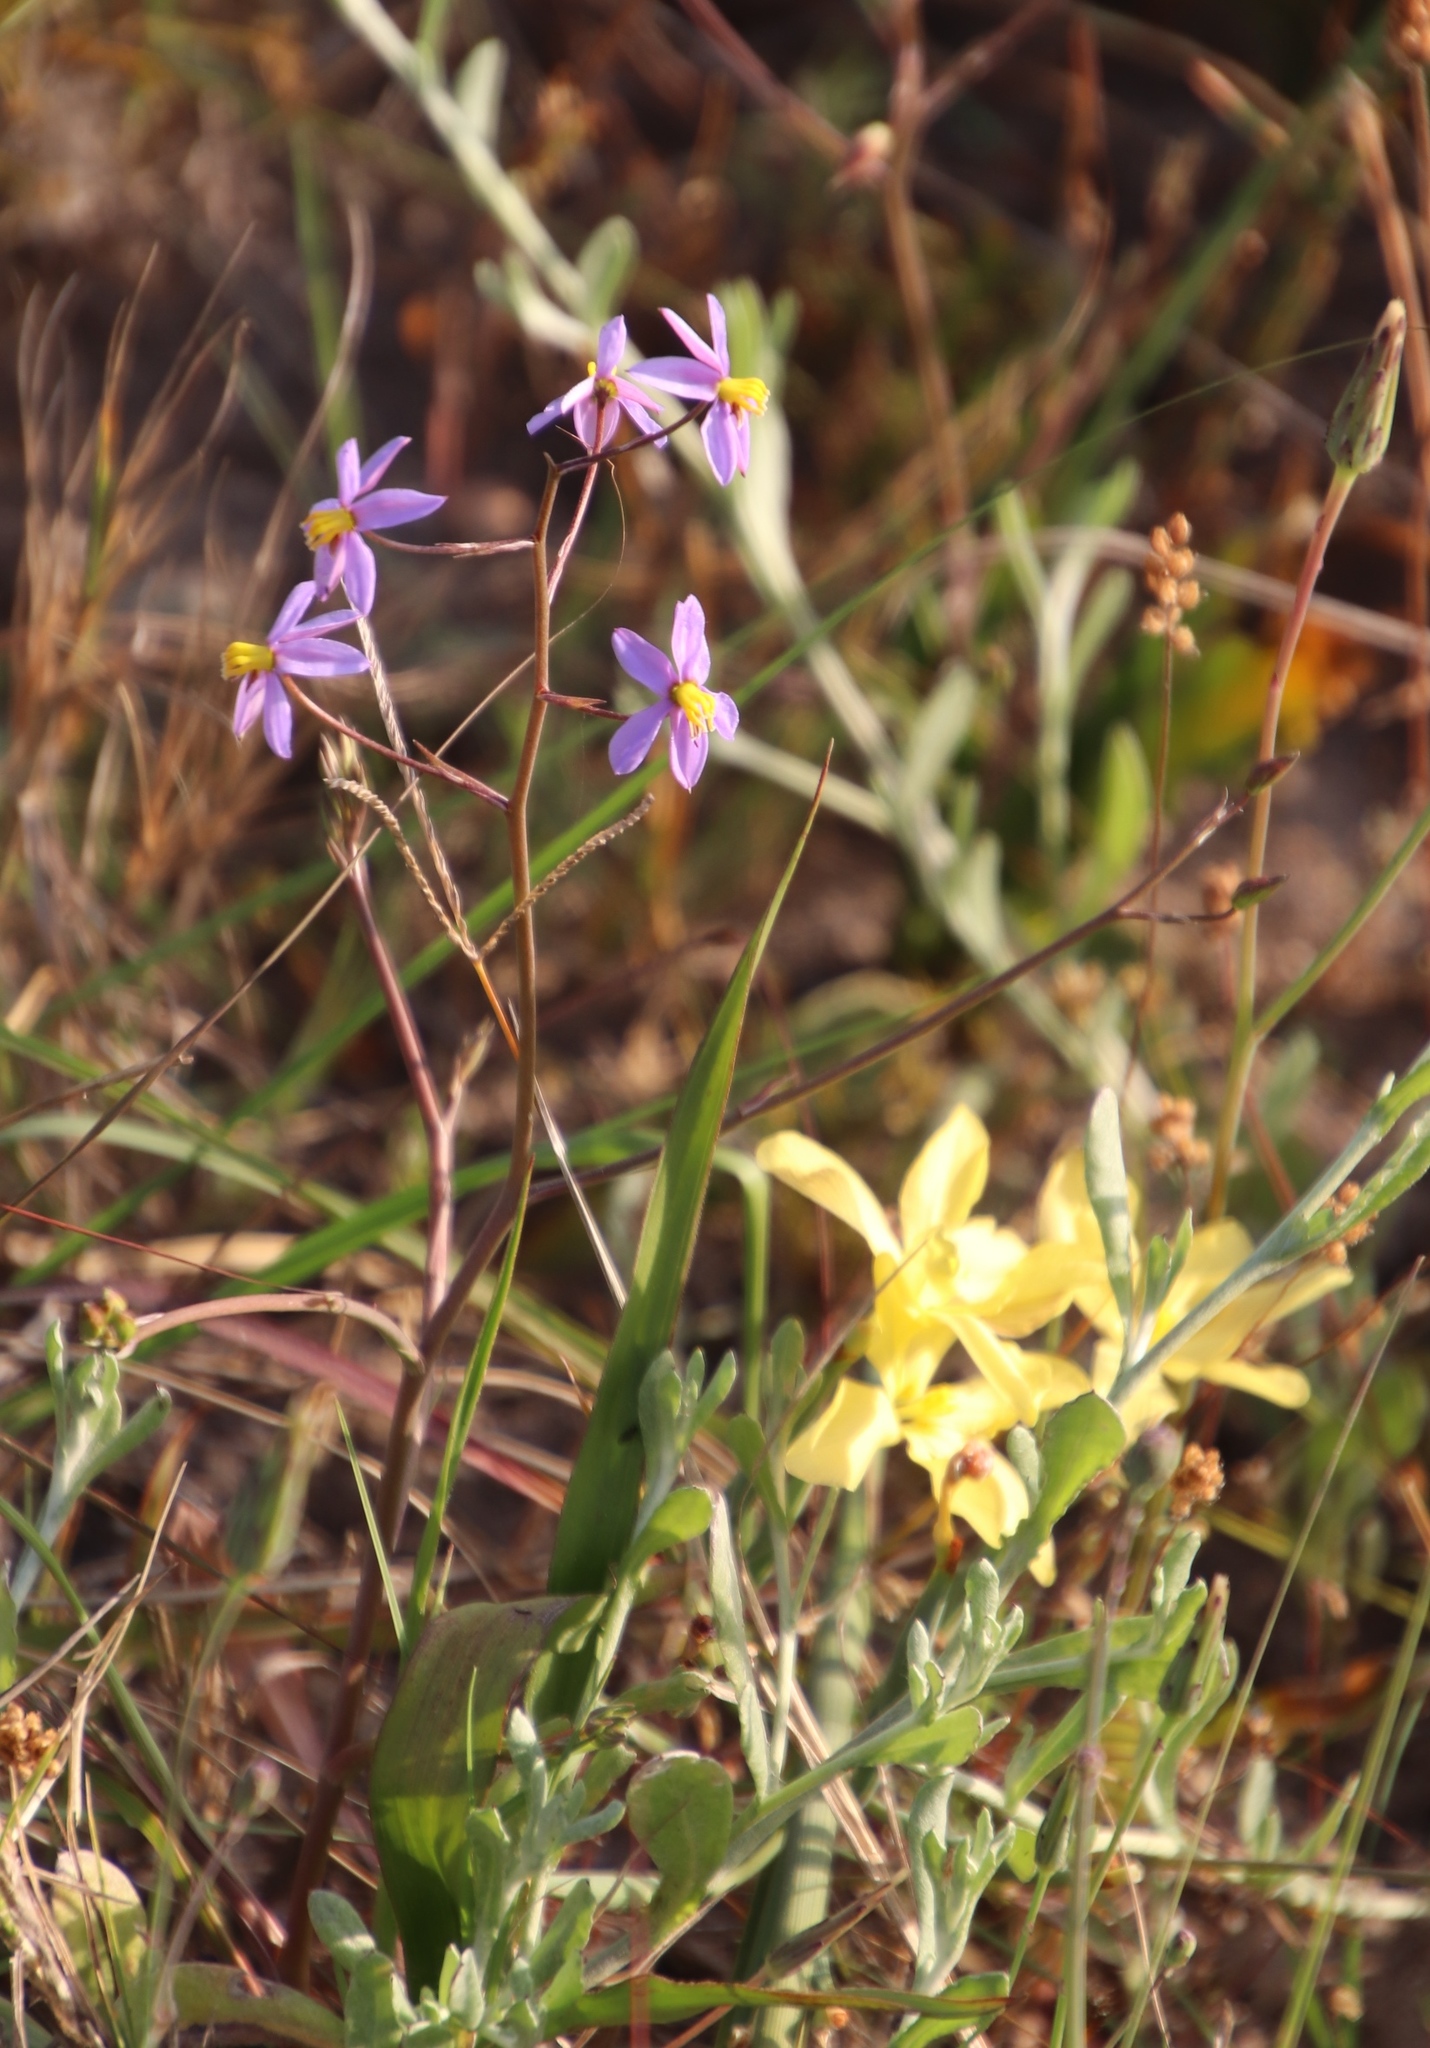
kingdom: Plantae
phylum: Tracheophyta
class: Liliopsida
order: Asparagales
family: Tecophilaeaceae
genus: Cyanella
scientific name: Cyanella hyacinthoides
